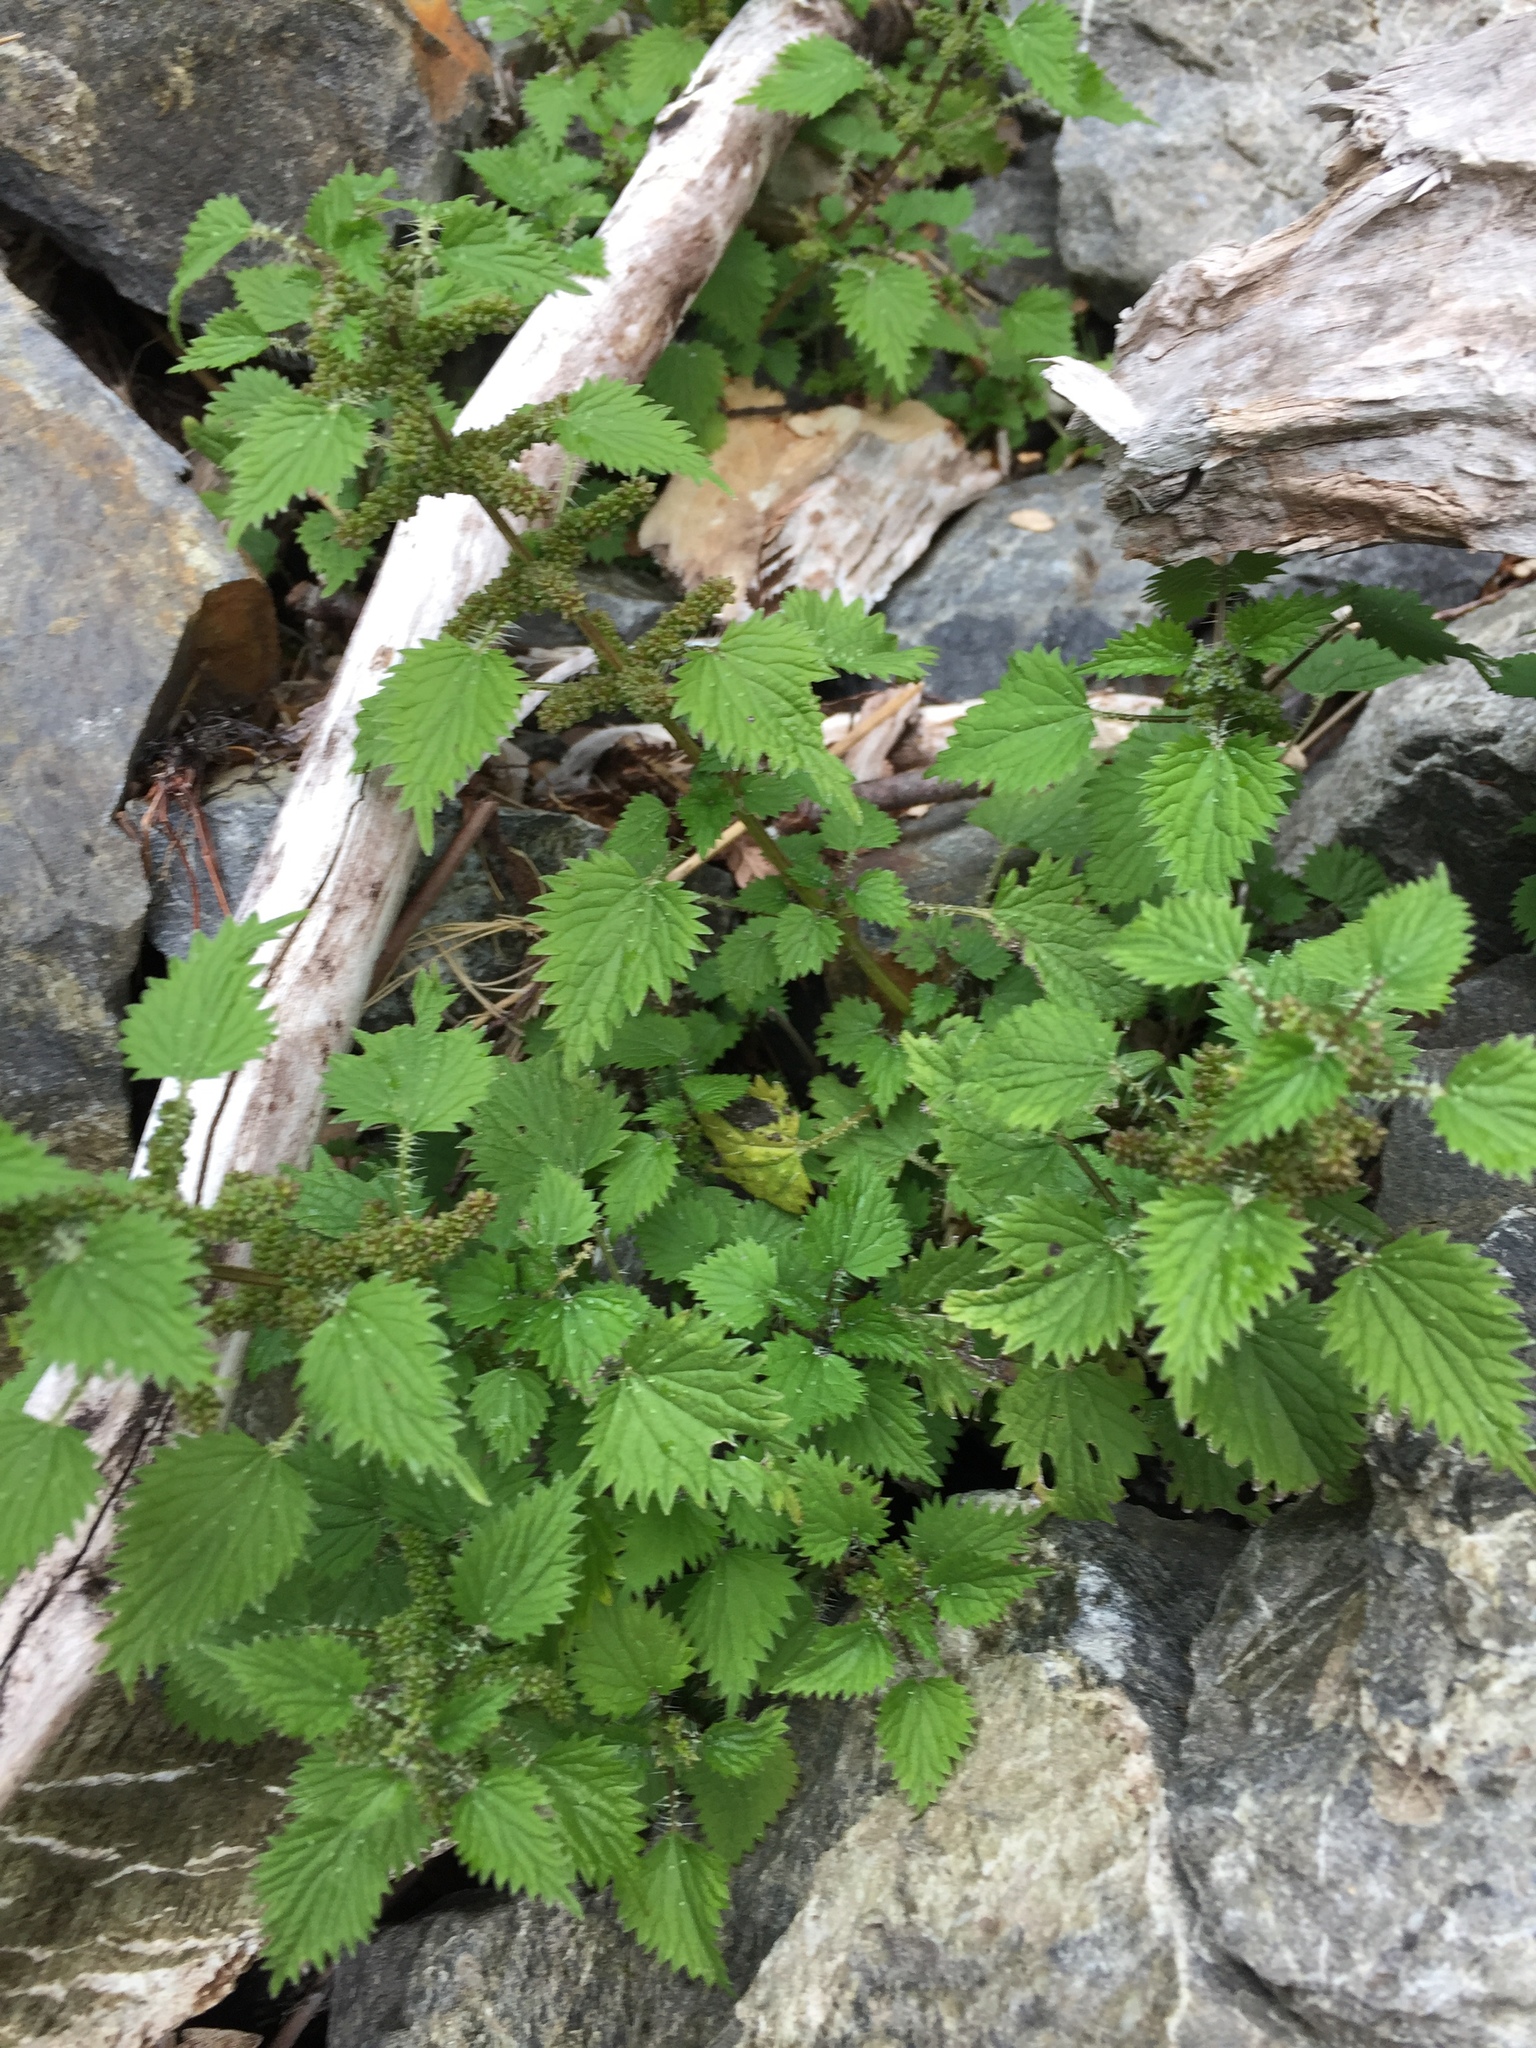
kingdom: Plantae
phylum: Tracheophyta
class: Magnoliopsida
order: Rosales
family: Urticaceae
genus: Urtica
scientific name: Urtica sykesii
